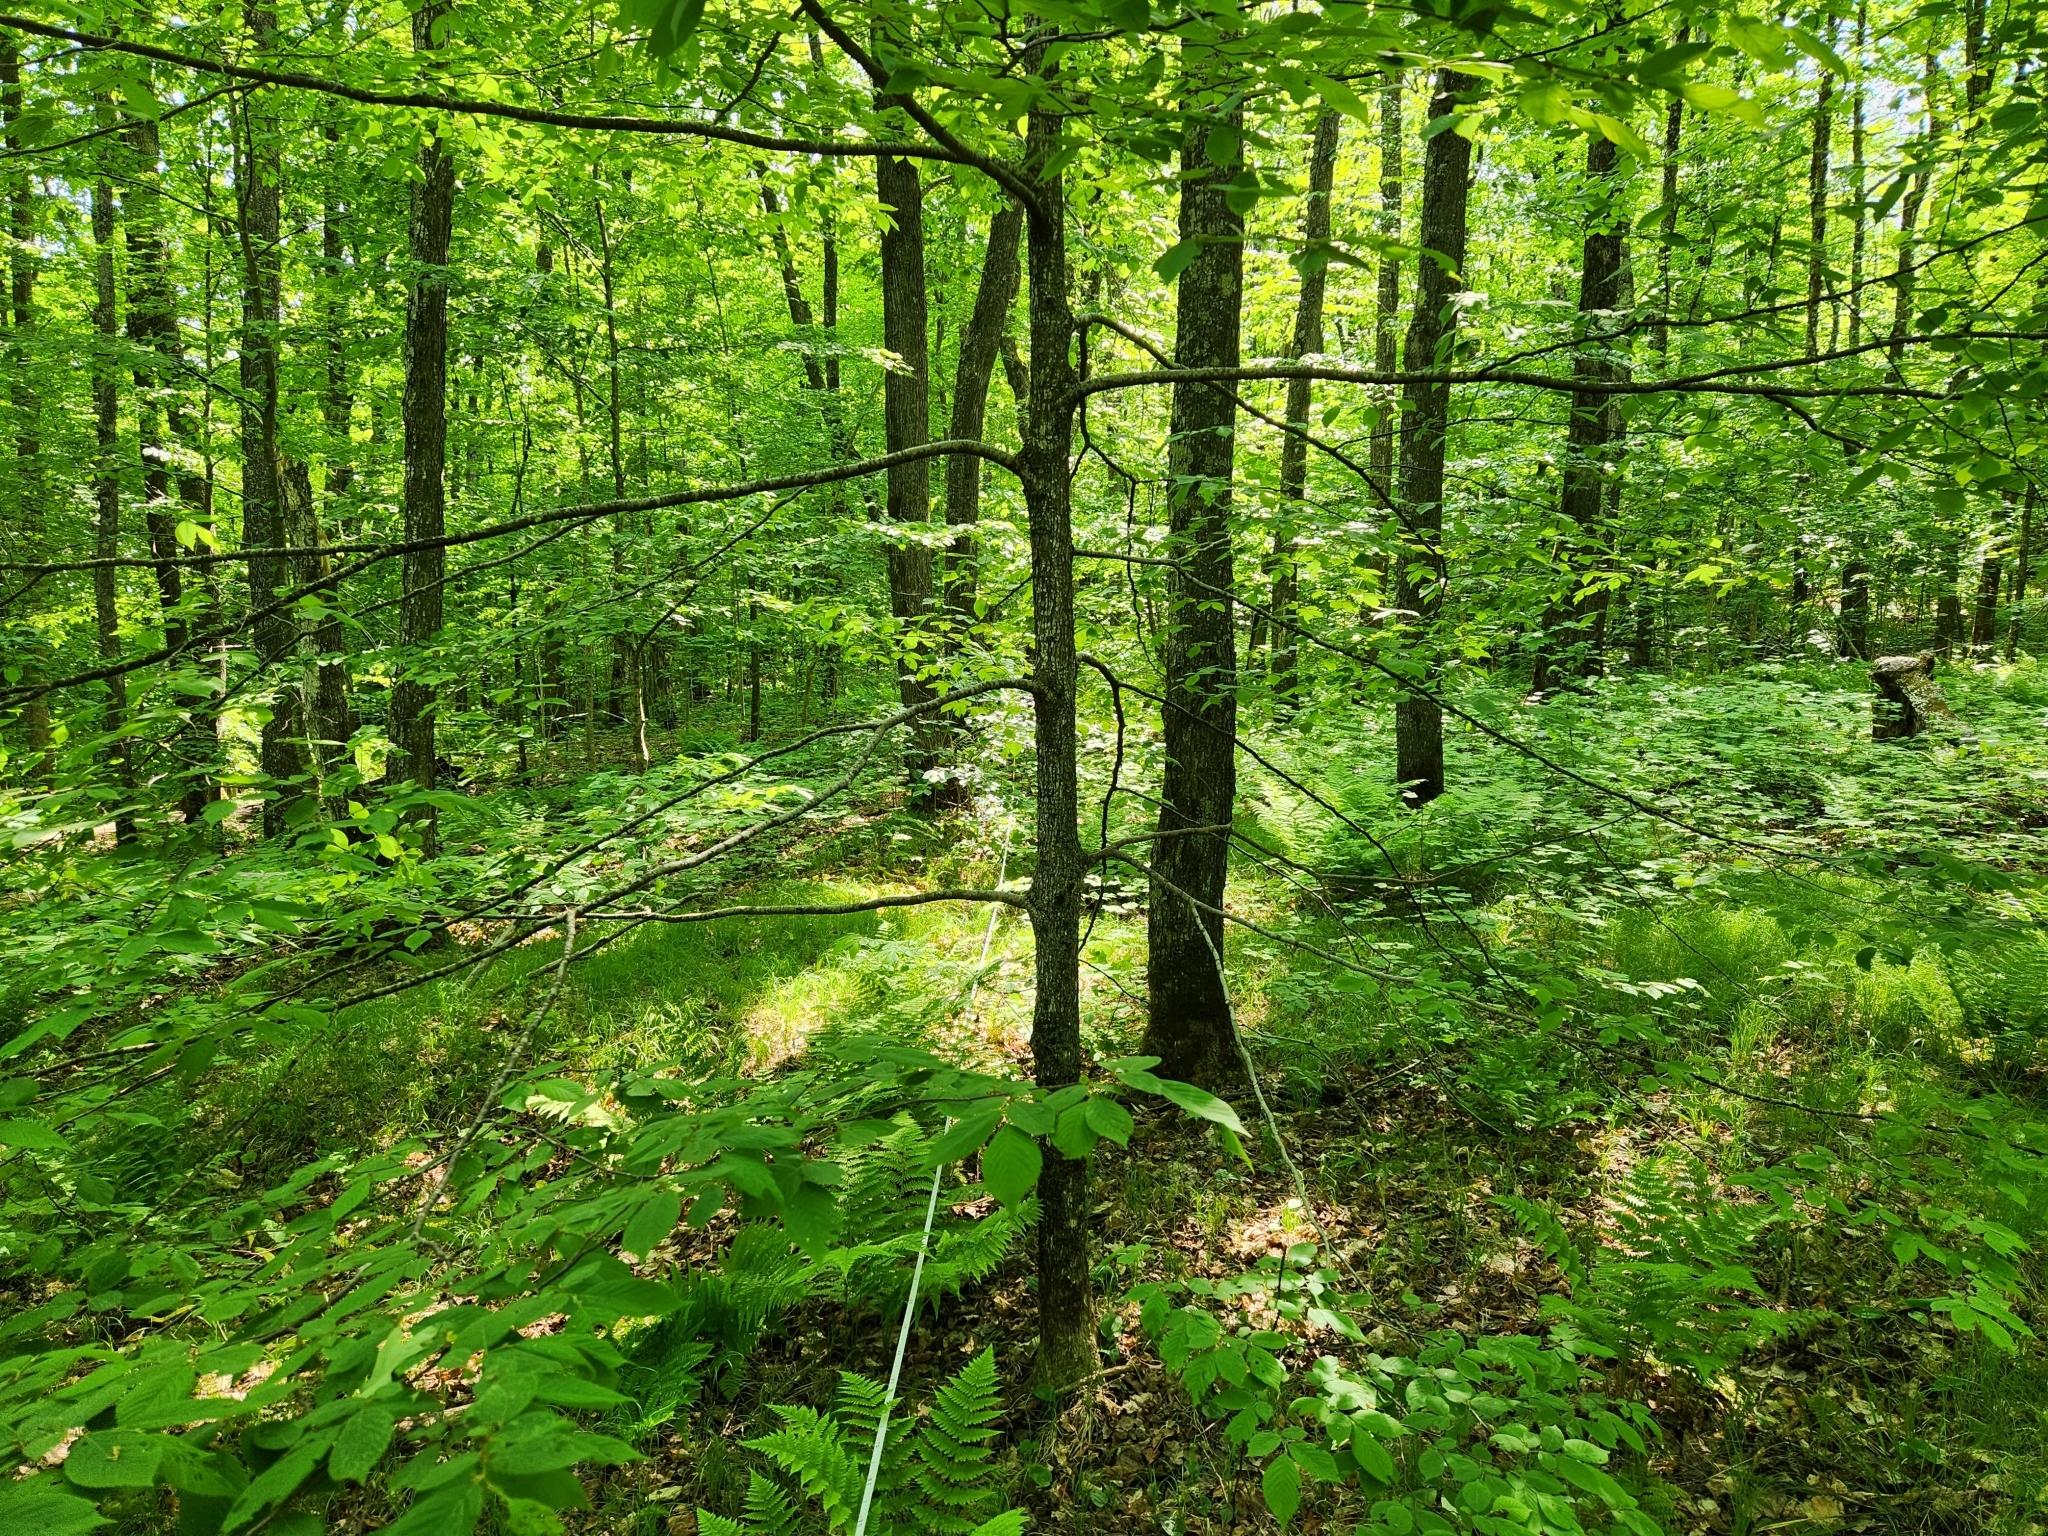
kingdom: Plantae
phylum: Tracheophyta
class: Magnoliopsida
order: Fagales
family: Betulaceae
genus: Ostrya
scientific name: Ostrya virginiana
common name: Ironwood
